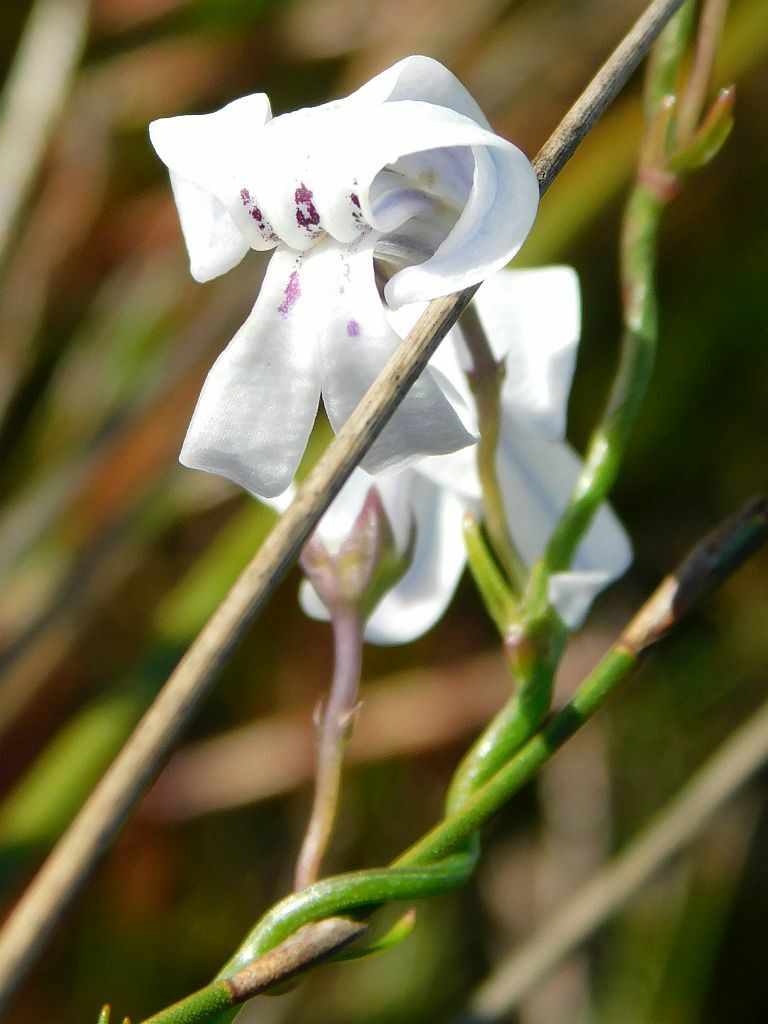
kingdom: Plantae
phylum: Tracheophyta
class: Magnoliopsida
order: Asterales
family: Campanulaceae
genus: Cyphia
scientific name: Cyphia volubilis
